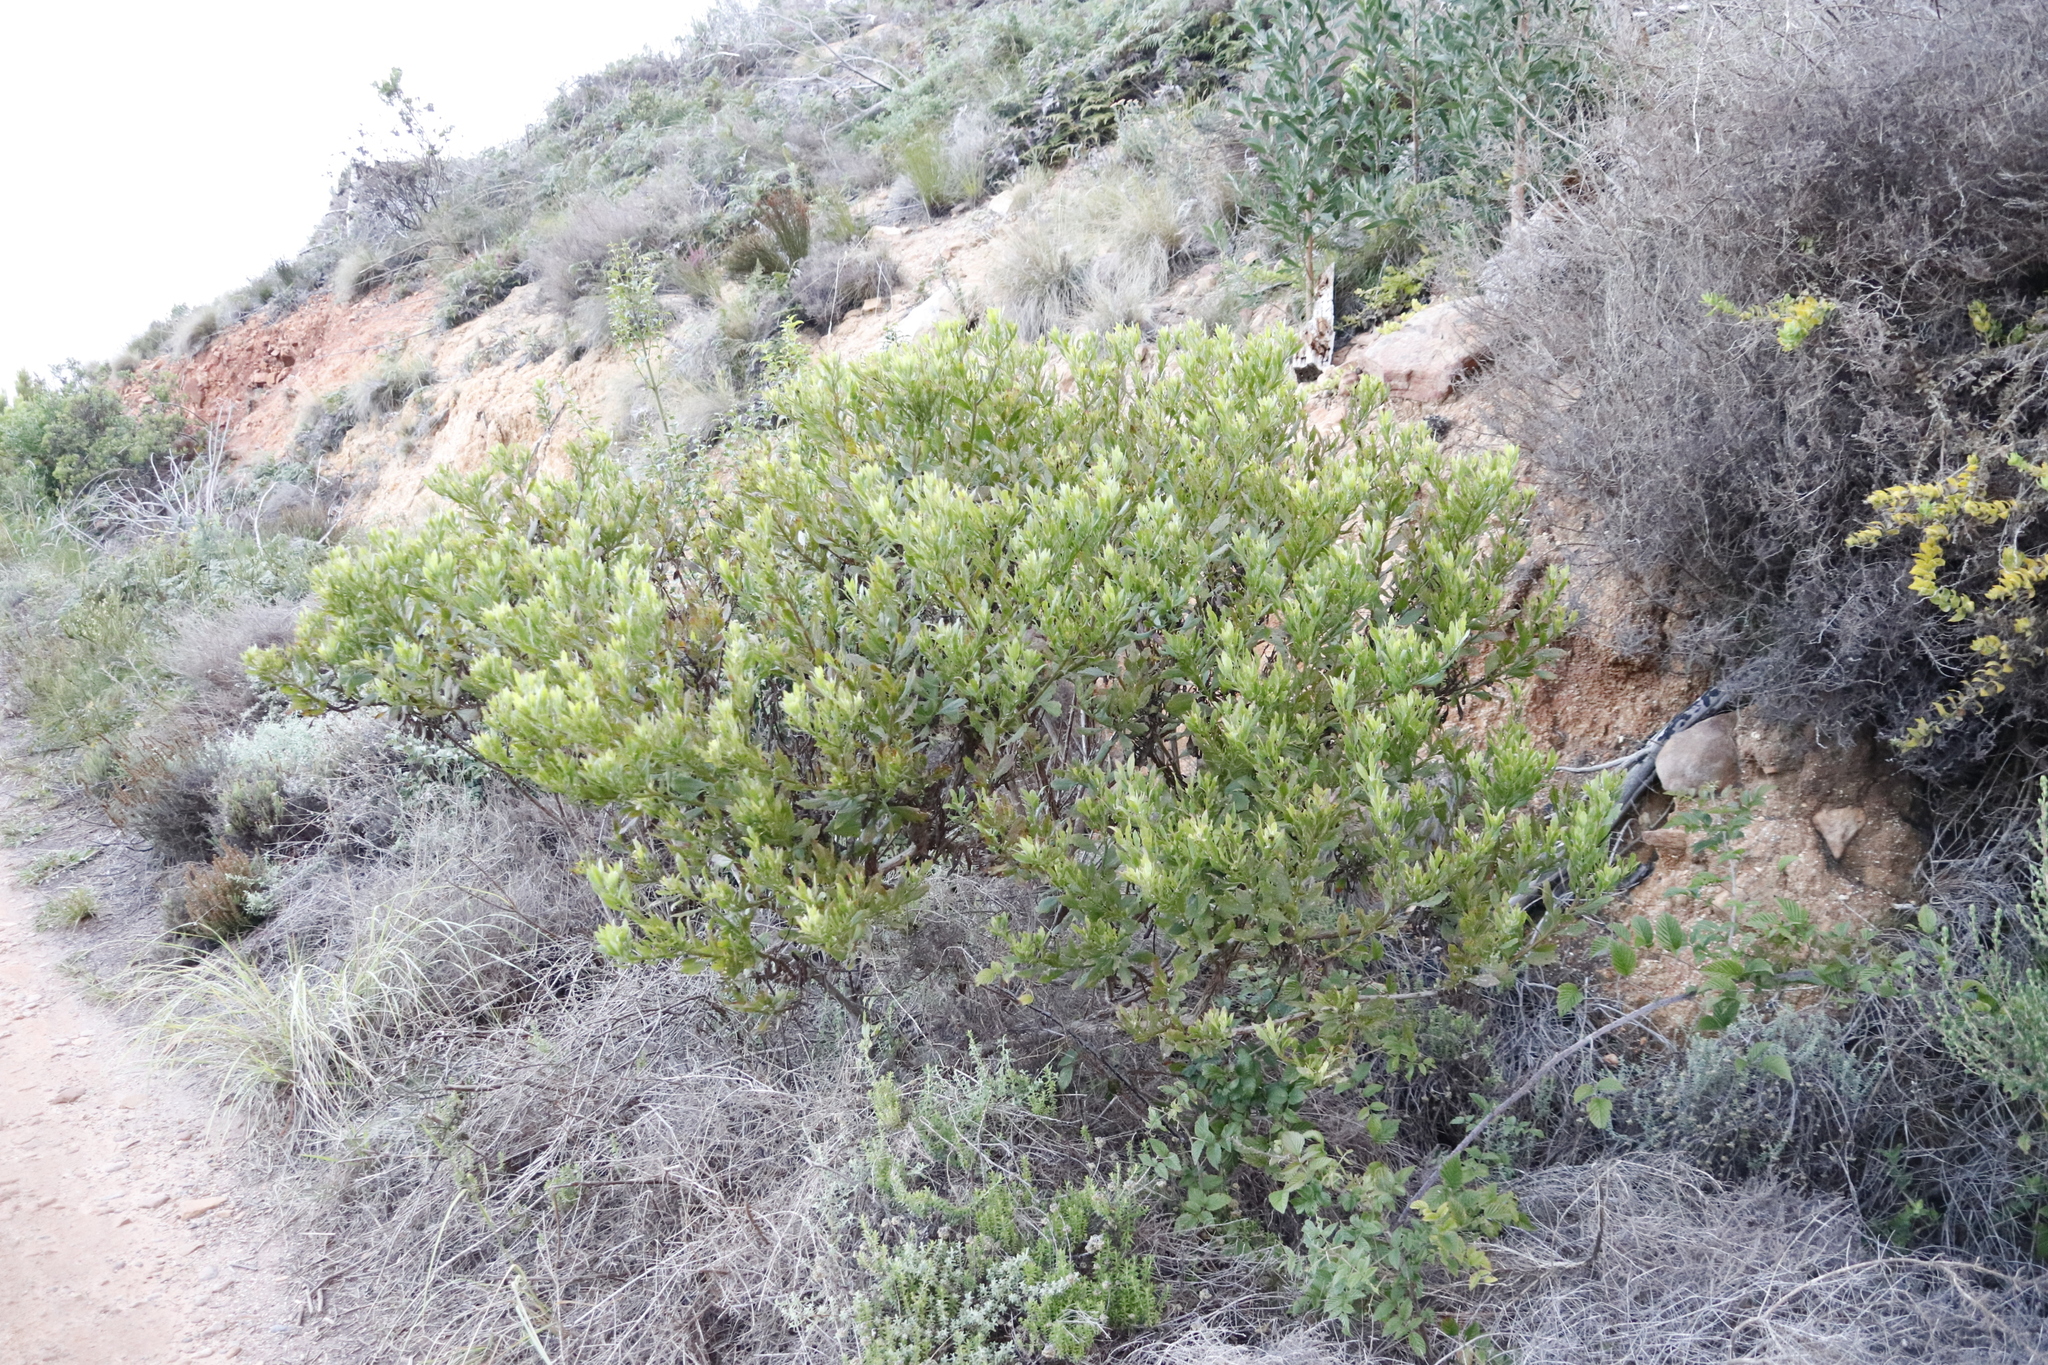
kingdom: Plantae
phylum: Tracheophyta
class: Magnoliopsida
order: Asterales
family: Asteraceae
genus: Osteospermum
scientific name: Osteospermum moniliferum
